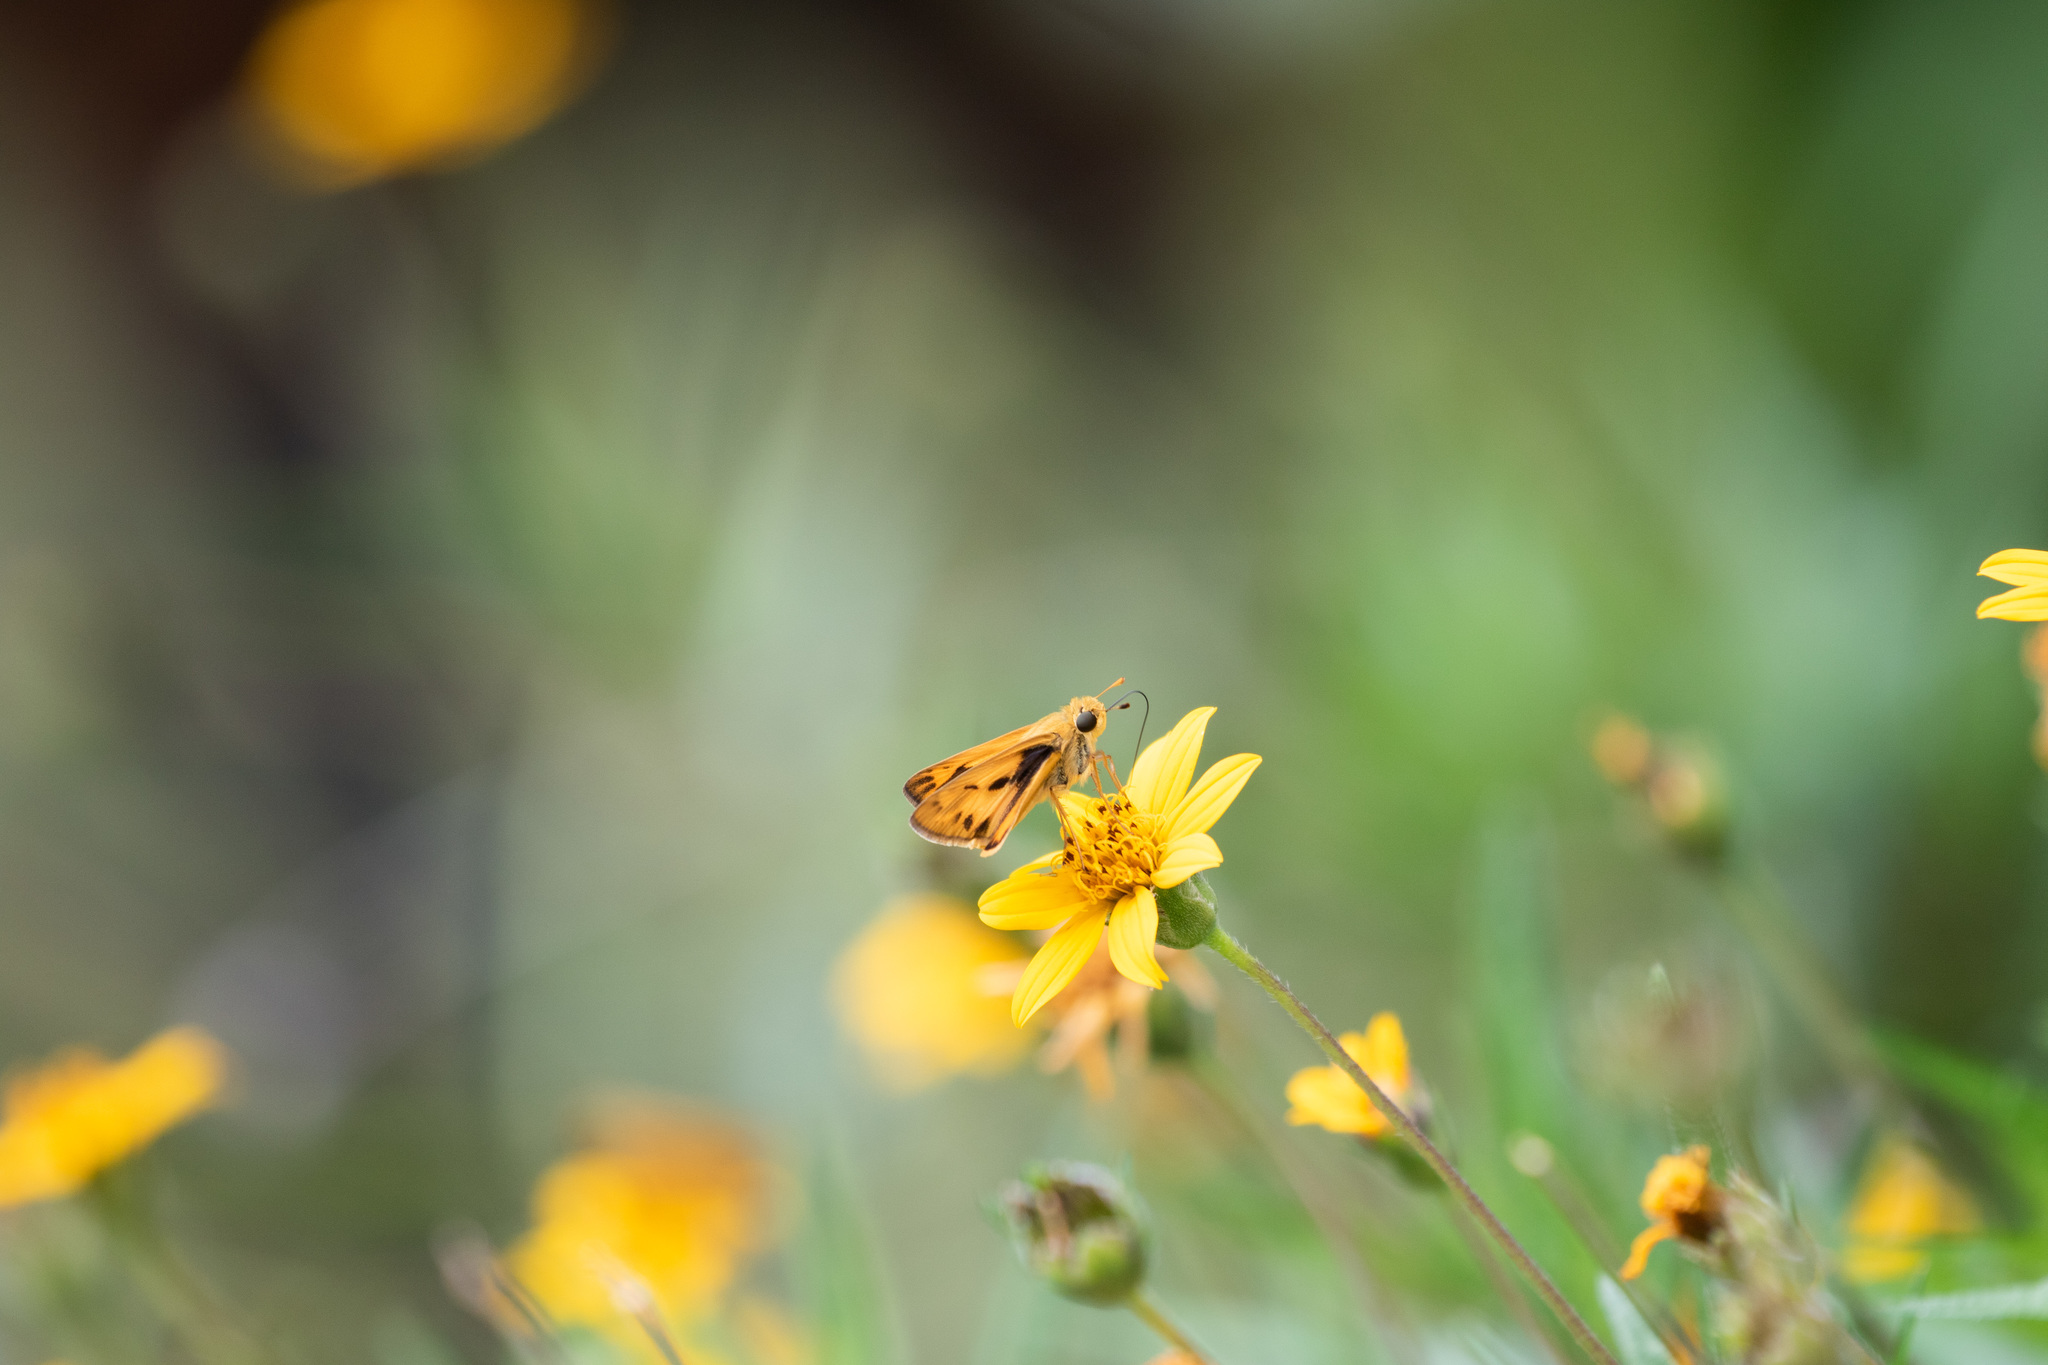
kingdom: Animalia
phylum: Arthropoda
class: Insecta
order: Lepidoptera
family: Hesperiidae
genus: Hylephila
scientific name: Hylephila phyleus
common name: Fiery skipper
